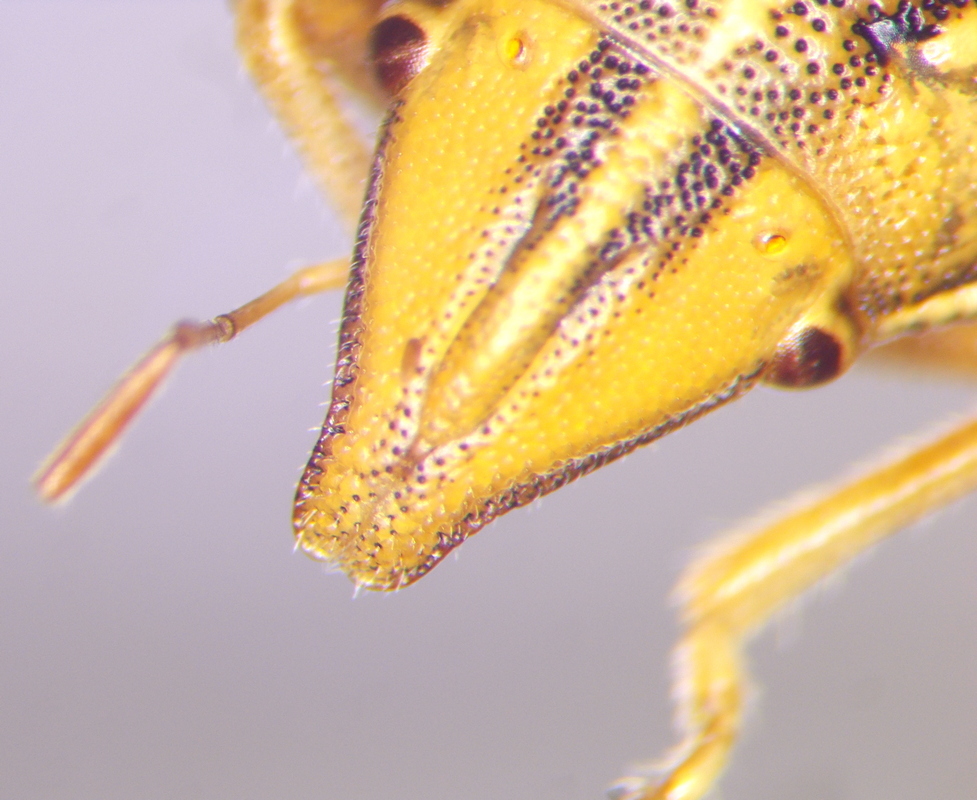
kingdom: Animalia
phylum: Arthropoda
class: Insecta
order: Hemiptera
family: Pentatomidae
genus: Aelia
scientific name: Aelia rostrata
